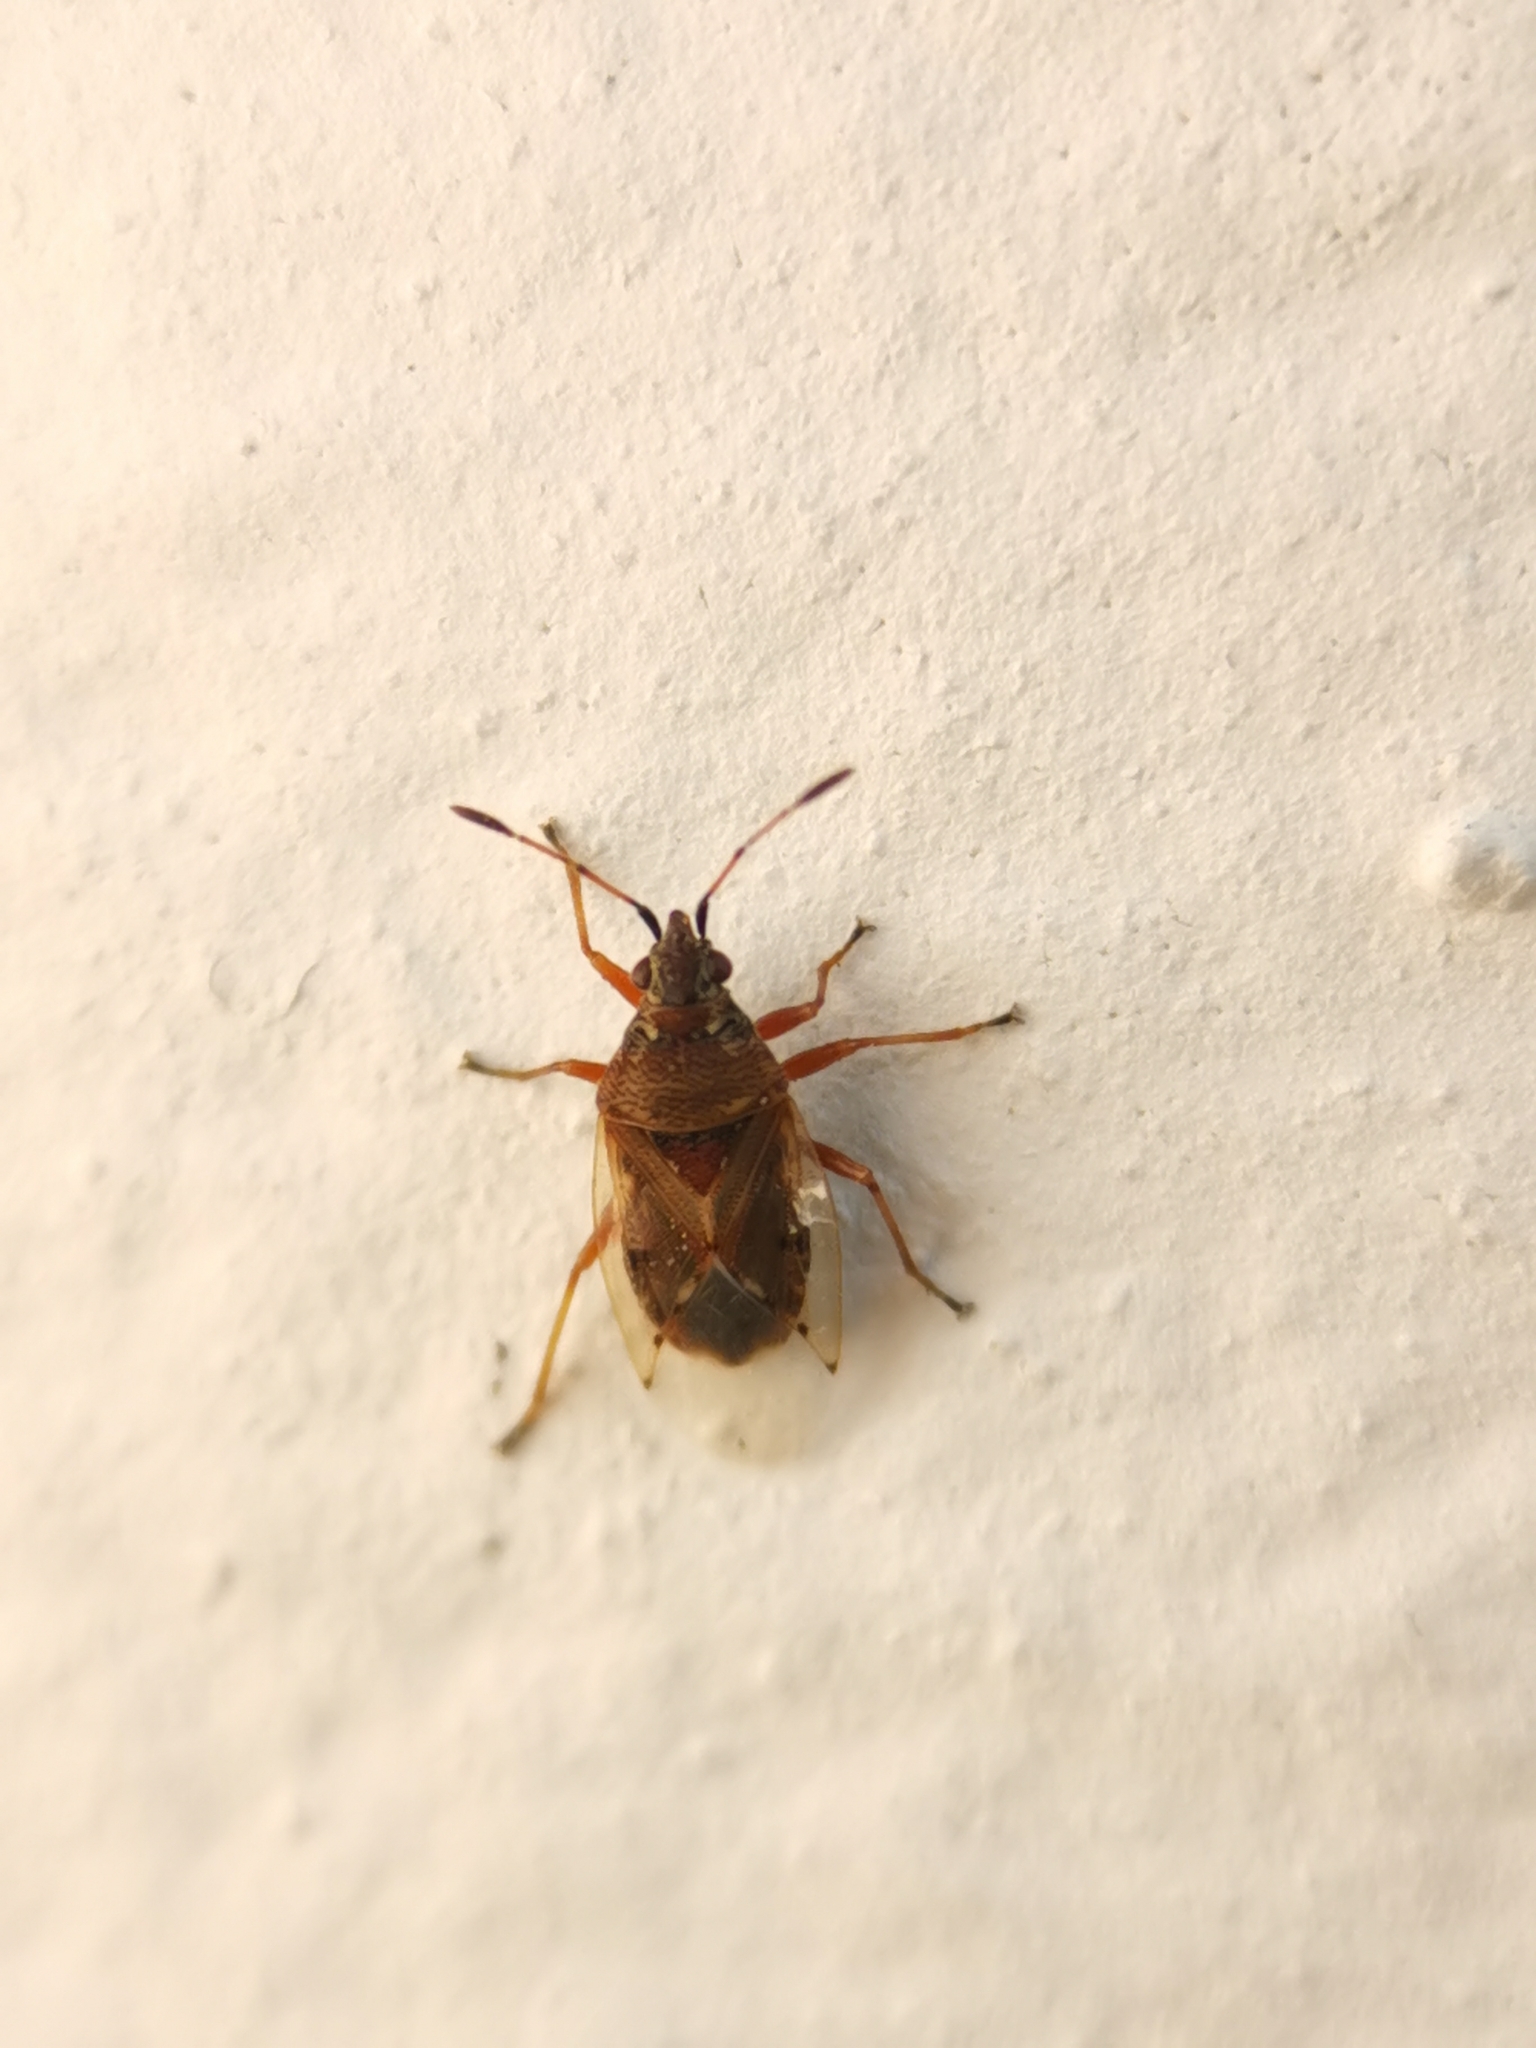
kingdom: Animalia
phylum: Arthropoda
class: Insecta
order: Hemiptera
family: Lygaeidae
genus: Kleidocerys
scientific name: Kleidocerys resedae
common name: Birch catkin bug
